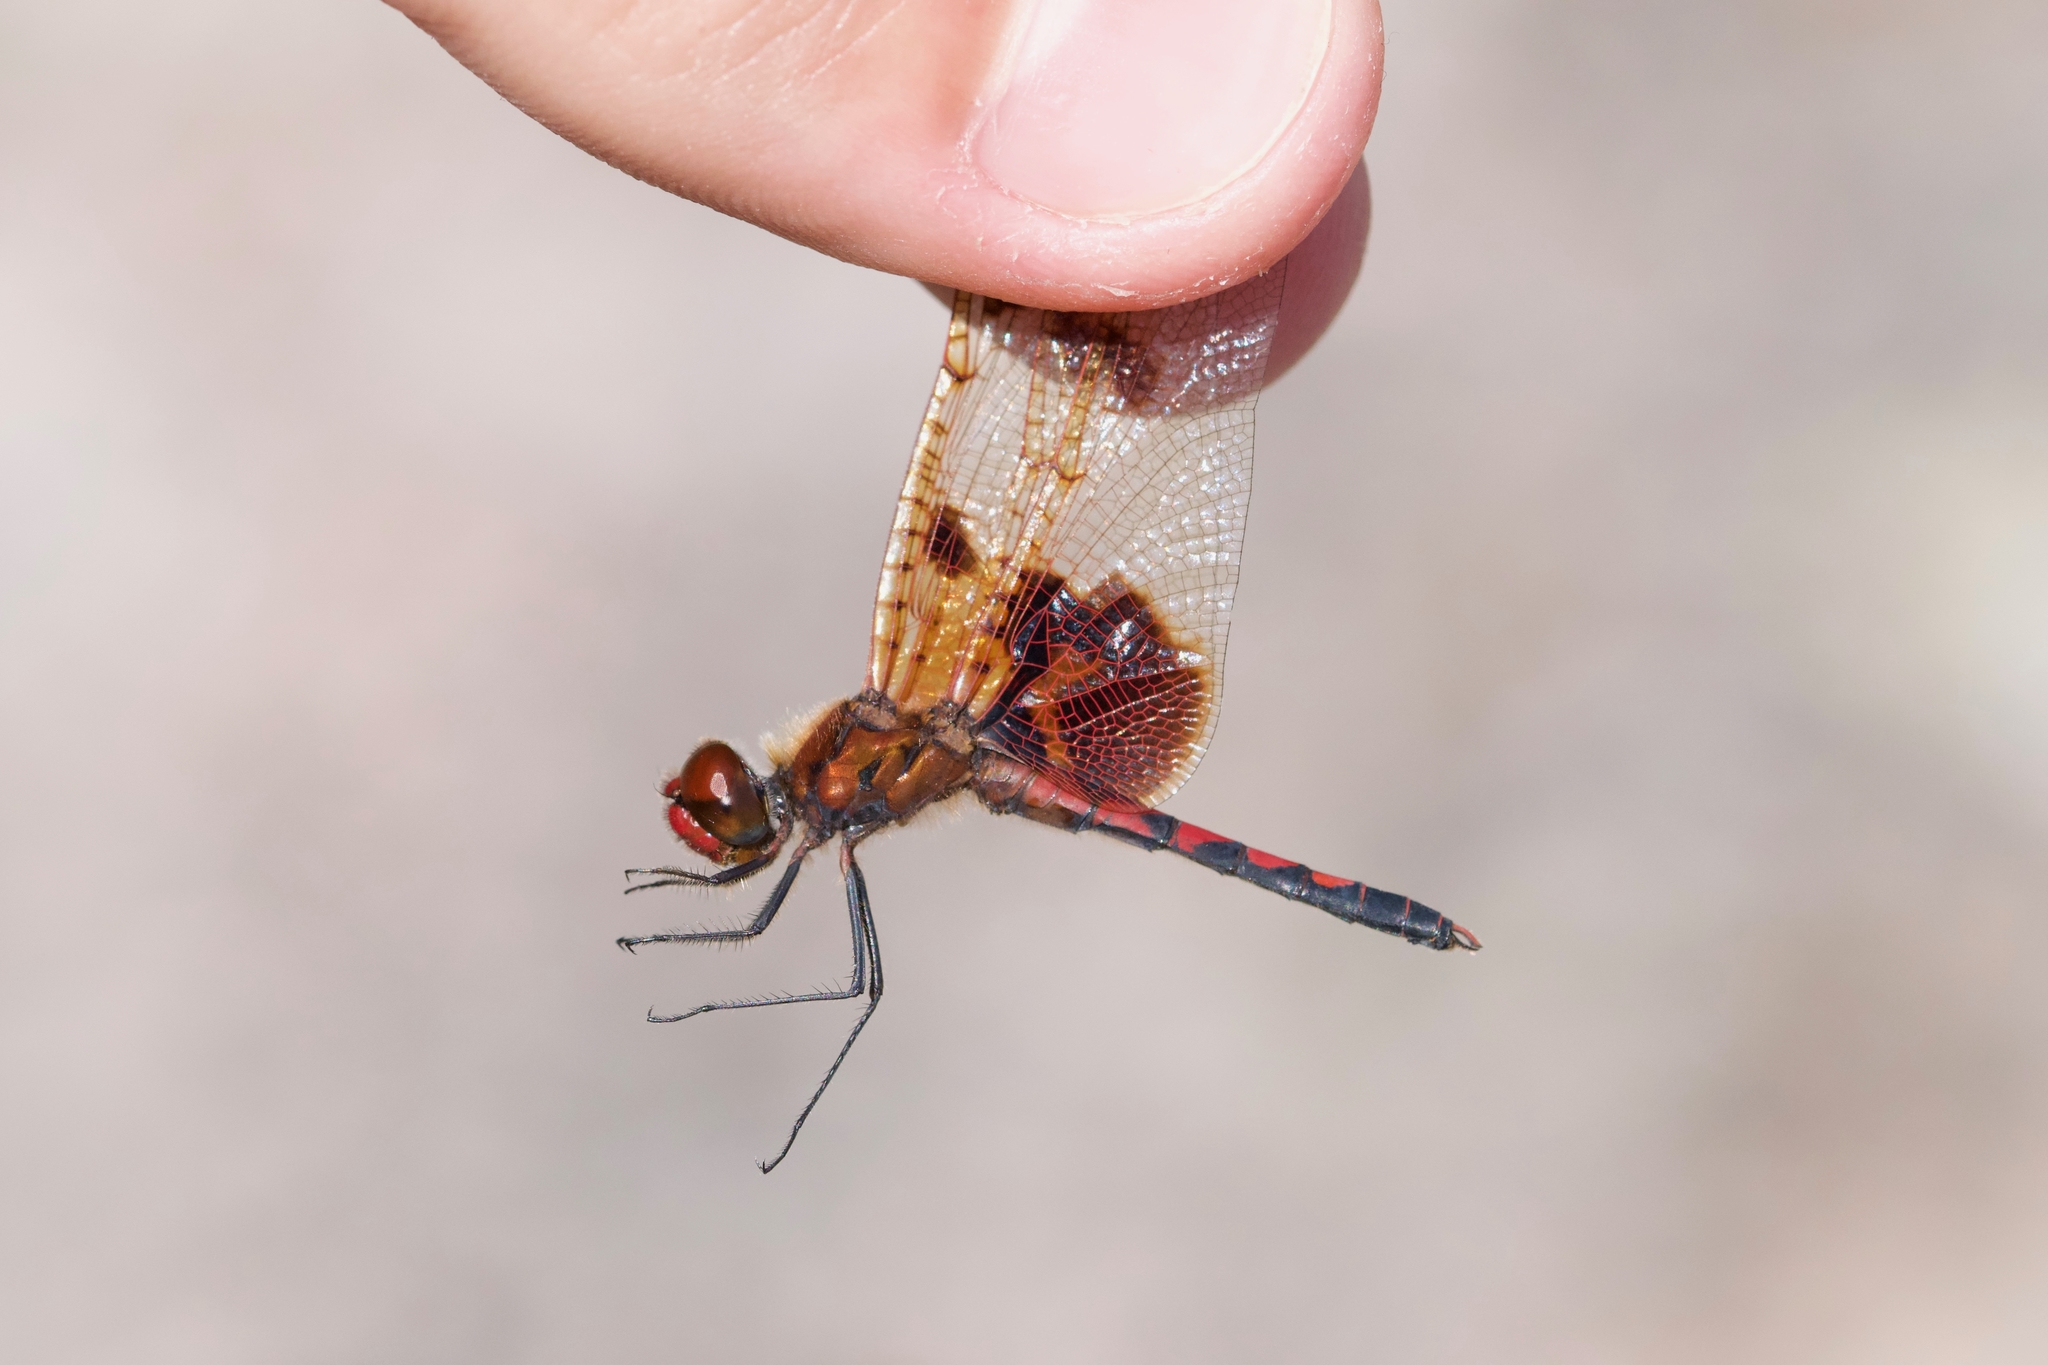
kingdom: Animalia
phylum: Arthropoda
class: Insecta
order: Odonata
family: Libellulidae
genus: Celithemis
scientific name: Celithemis elisa
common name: Calico pennant
